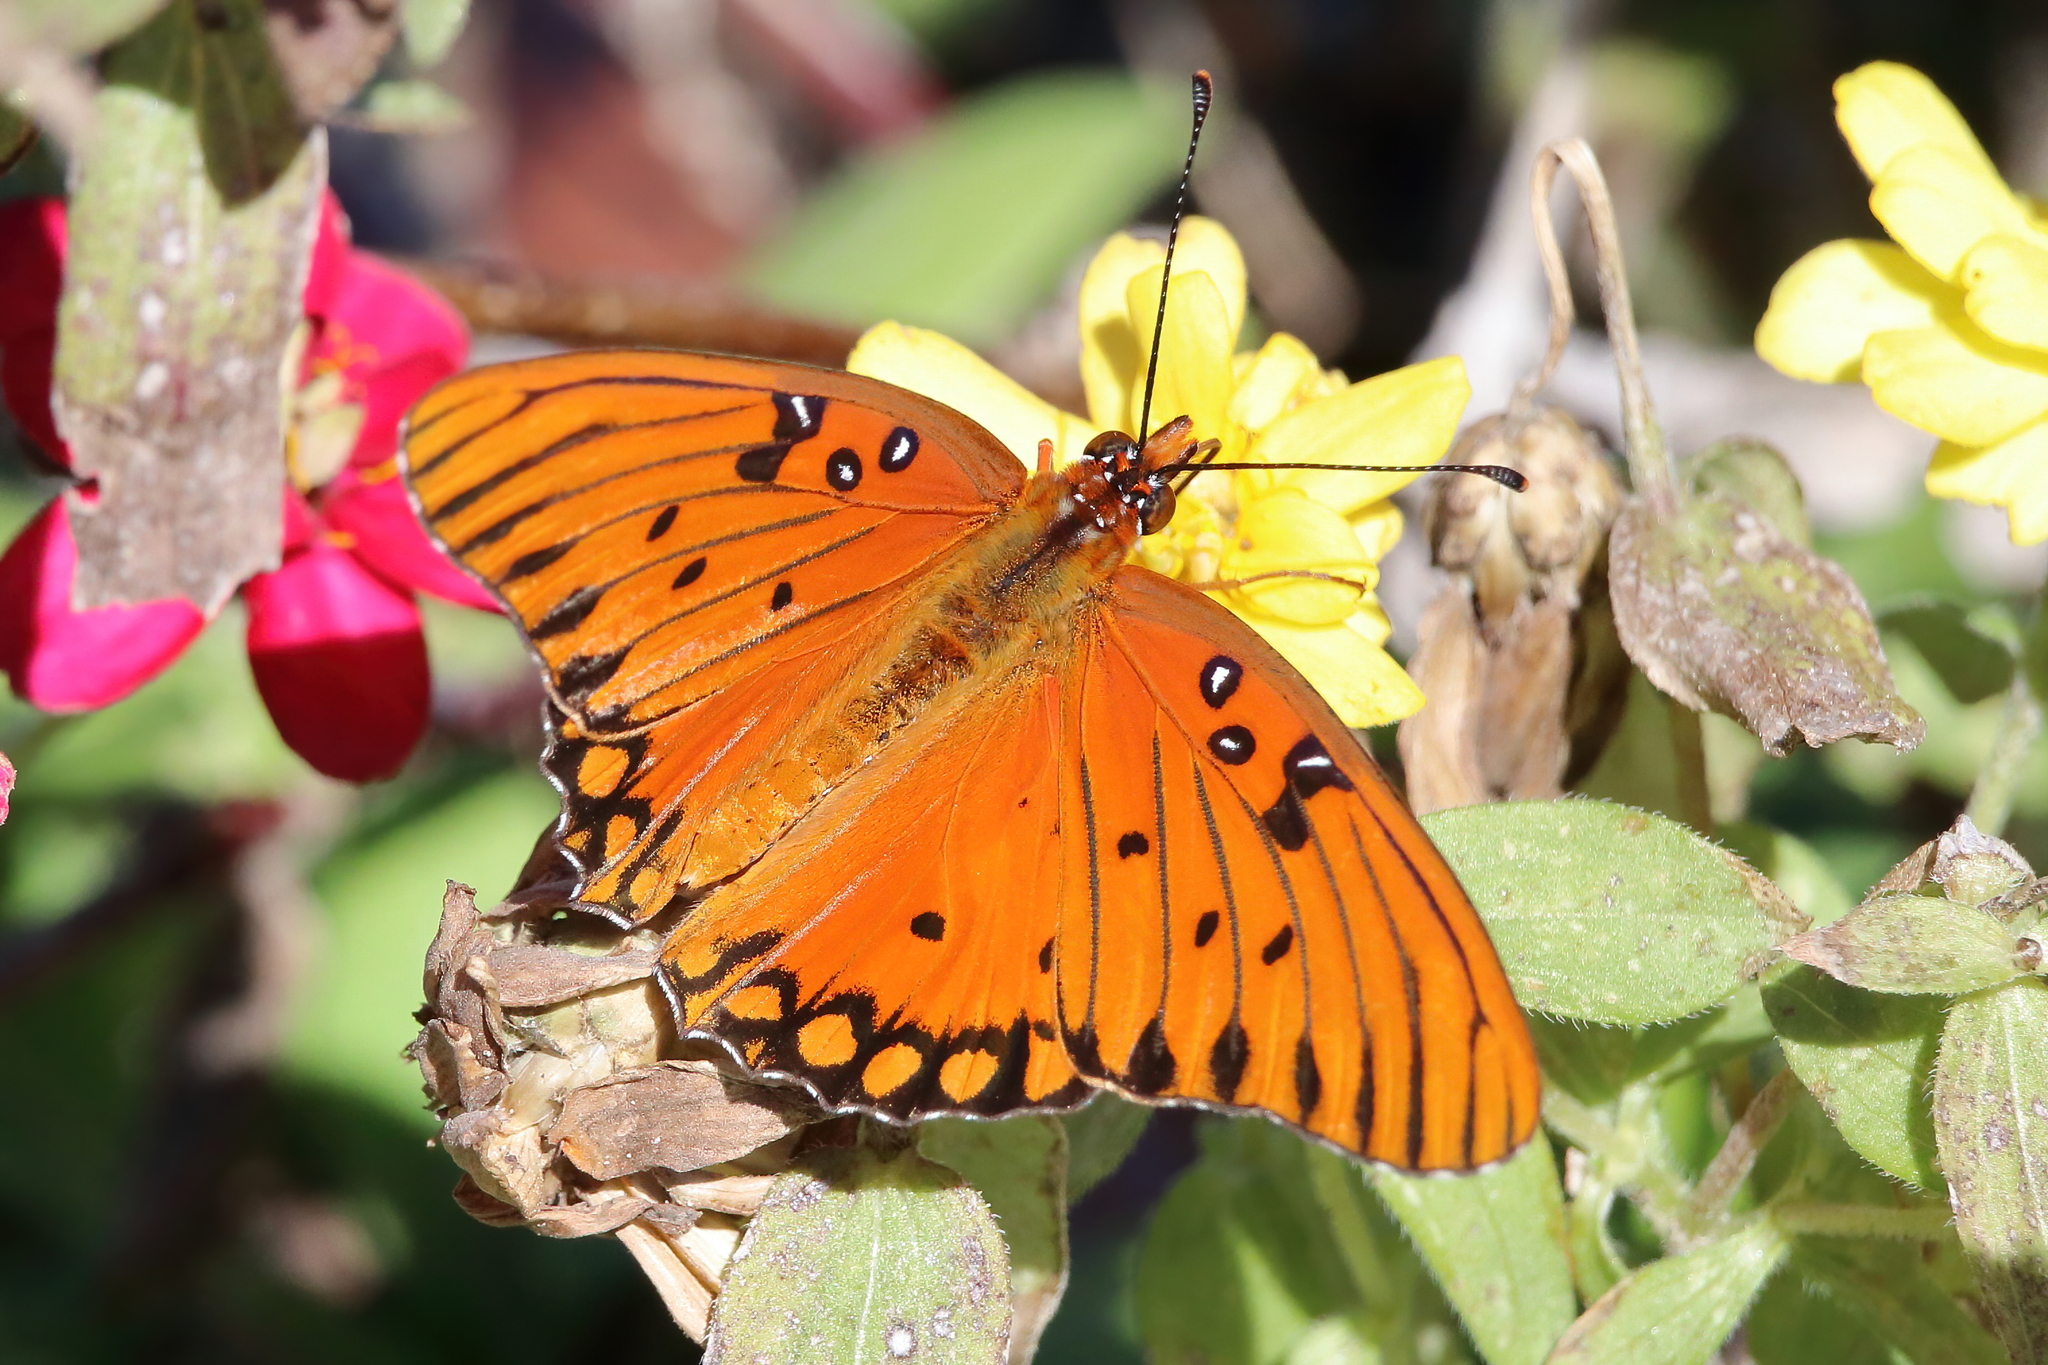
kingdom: Animalia
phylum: Arthropoda
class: Insecta
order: Lepidoptera
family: Nymphalidae
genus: Dione
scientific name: Dione vanillae
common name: Gulf fritillary
